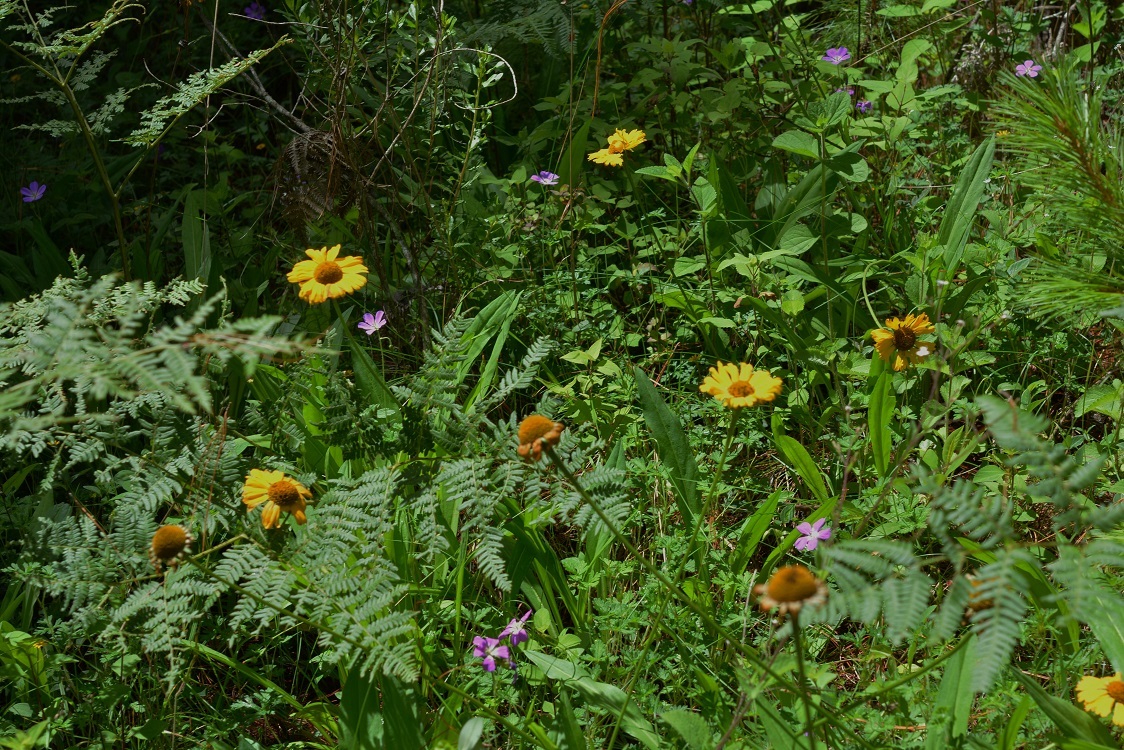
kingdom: Plantae
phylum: Tracheophyta
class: Magnoliopsida
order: Asterales
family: Asteraceae
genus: Helenium
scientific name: Helenium scorzonerifolium
